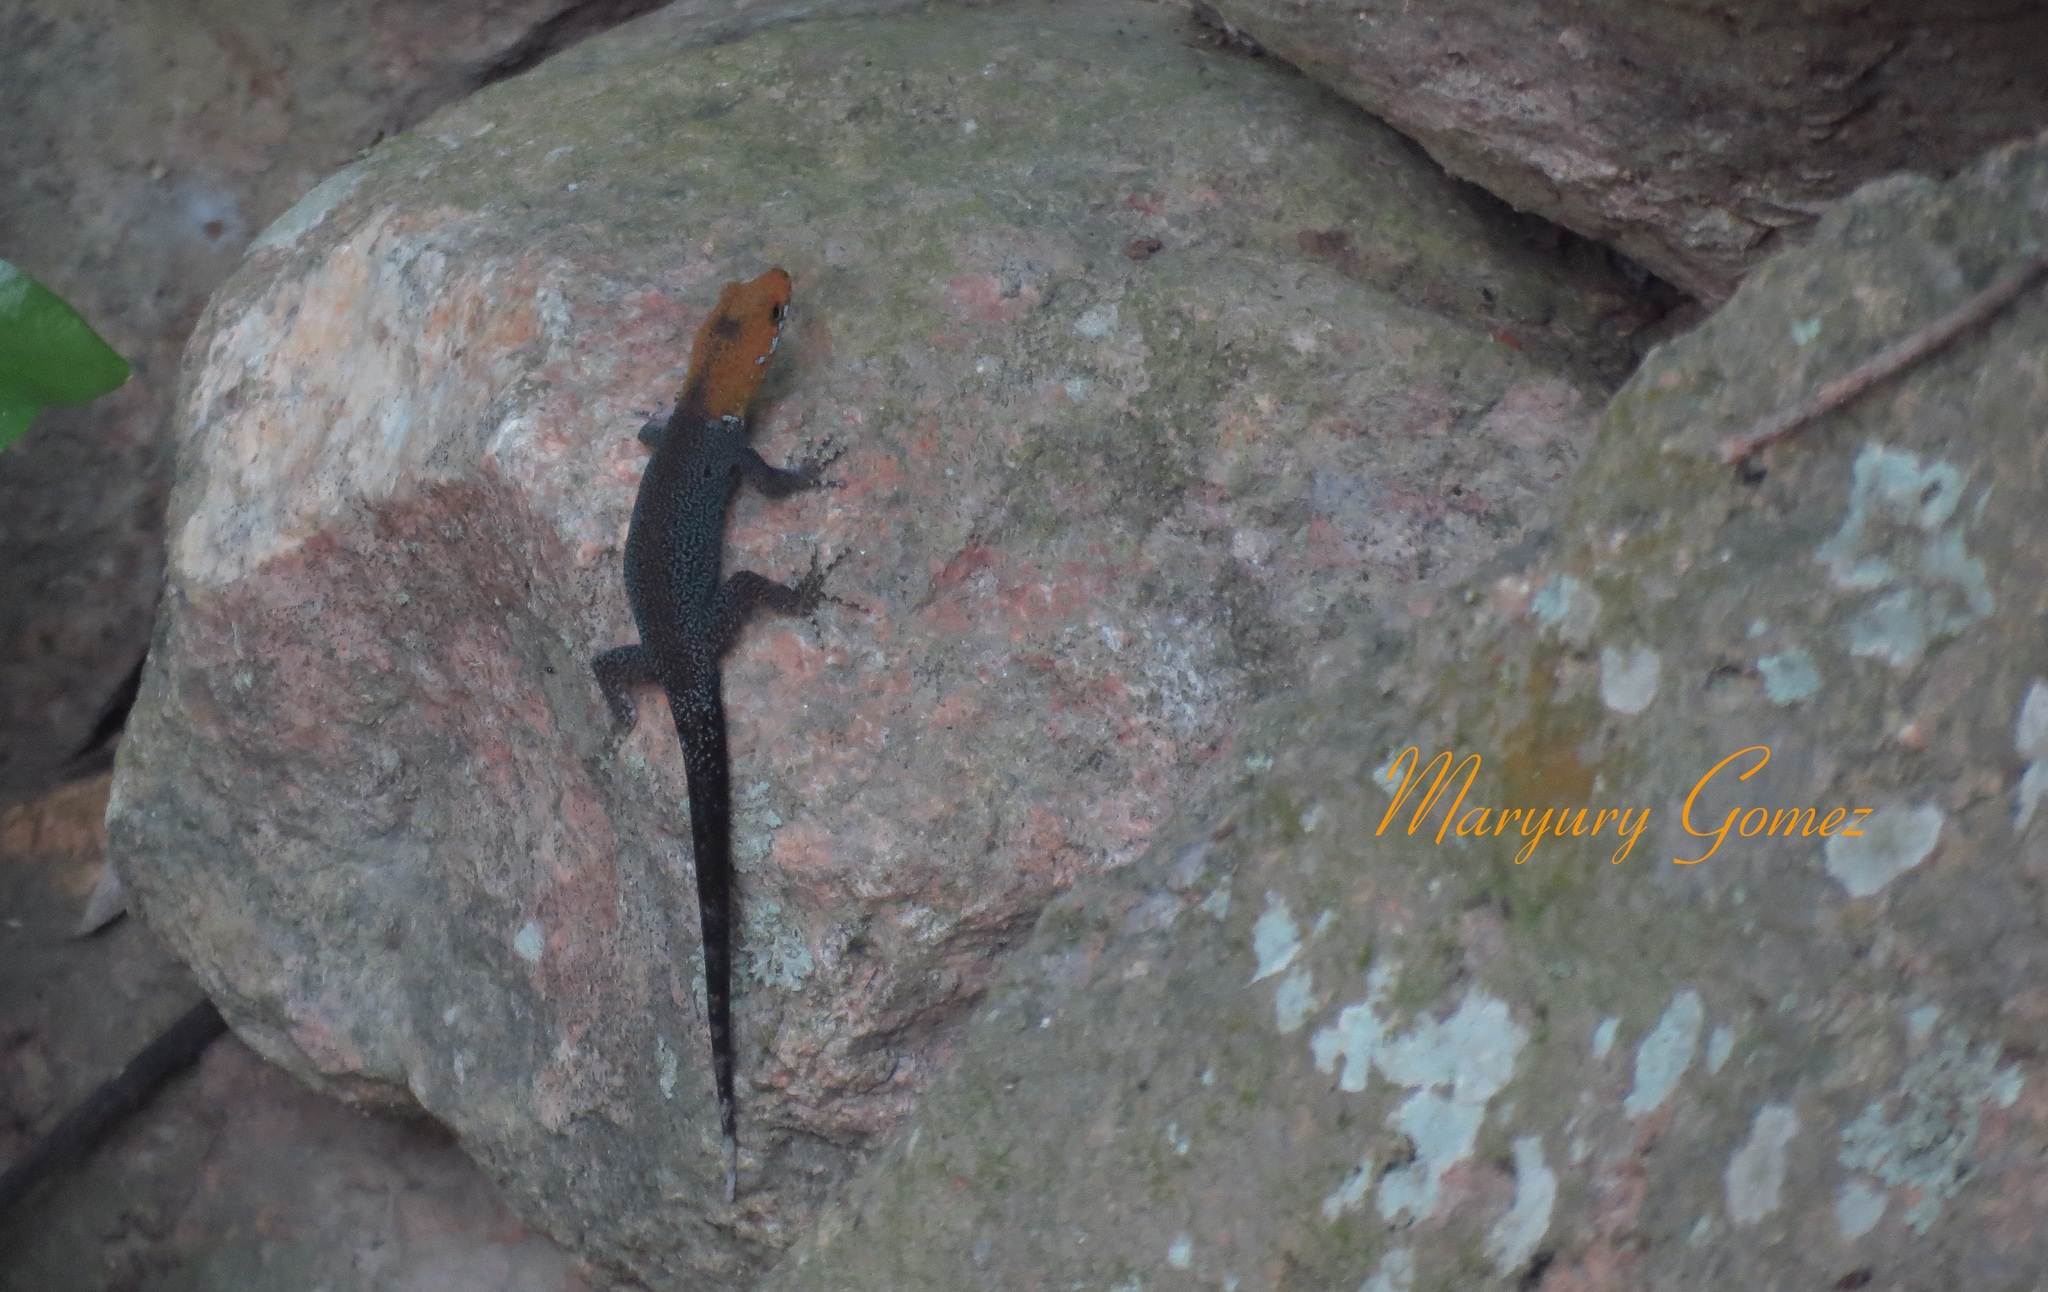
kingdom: Animalia
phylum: Chordata
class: Squamata
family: Sphaerodactylidae
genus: Gonatodes
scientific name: Gonatodes albogularis
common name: Yellow-headed gecko
